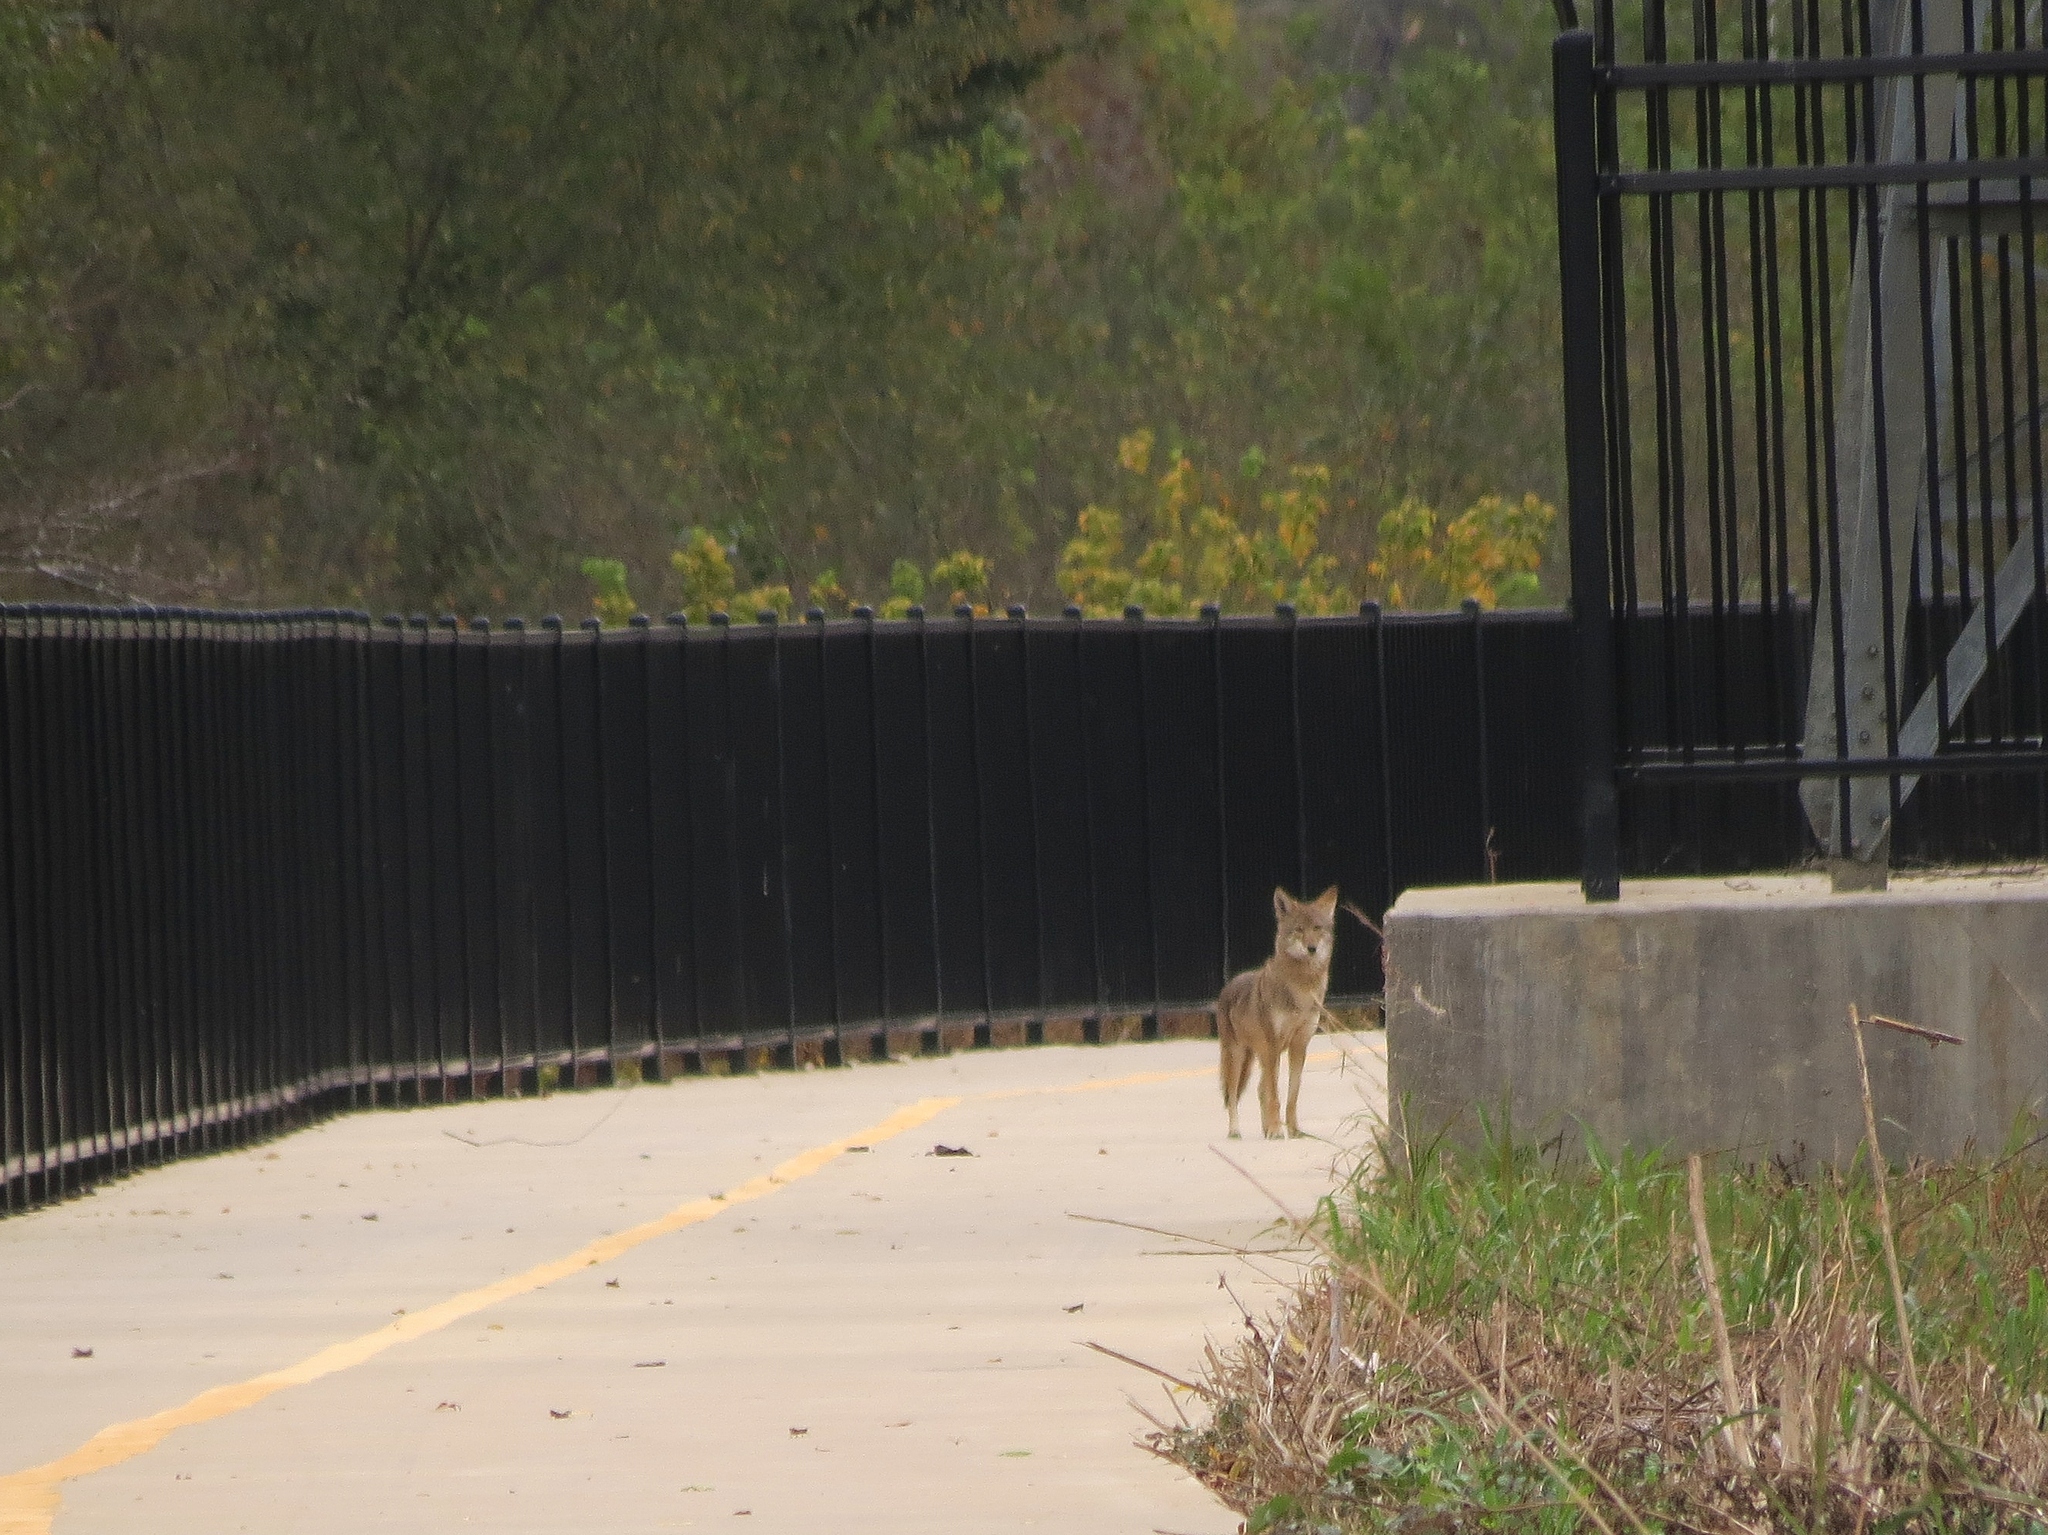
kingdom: Animalia
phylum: Chordata
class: Mammalia
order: Carnivora
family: Canidae
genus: Canis
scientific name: Canis latrans
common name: Coyote
